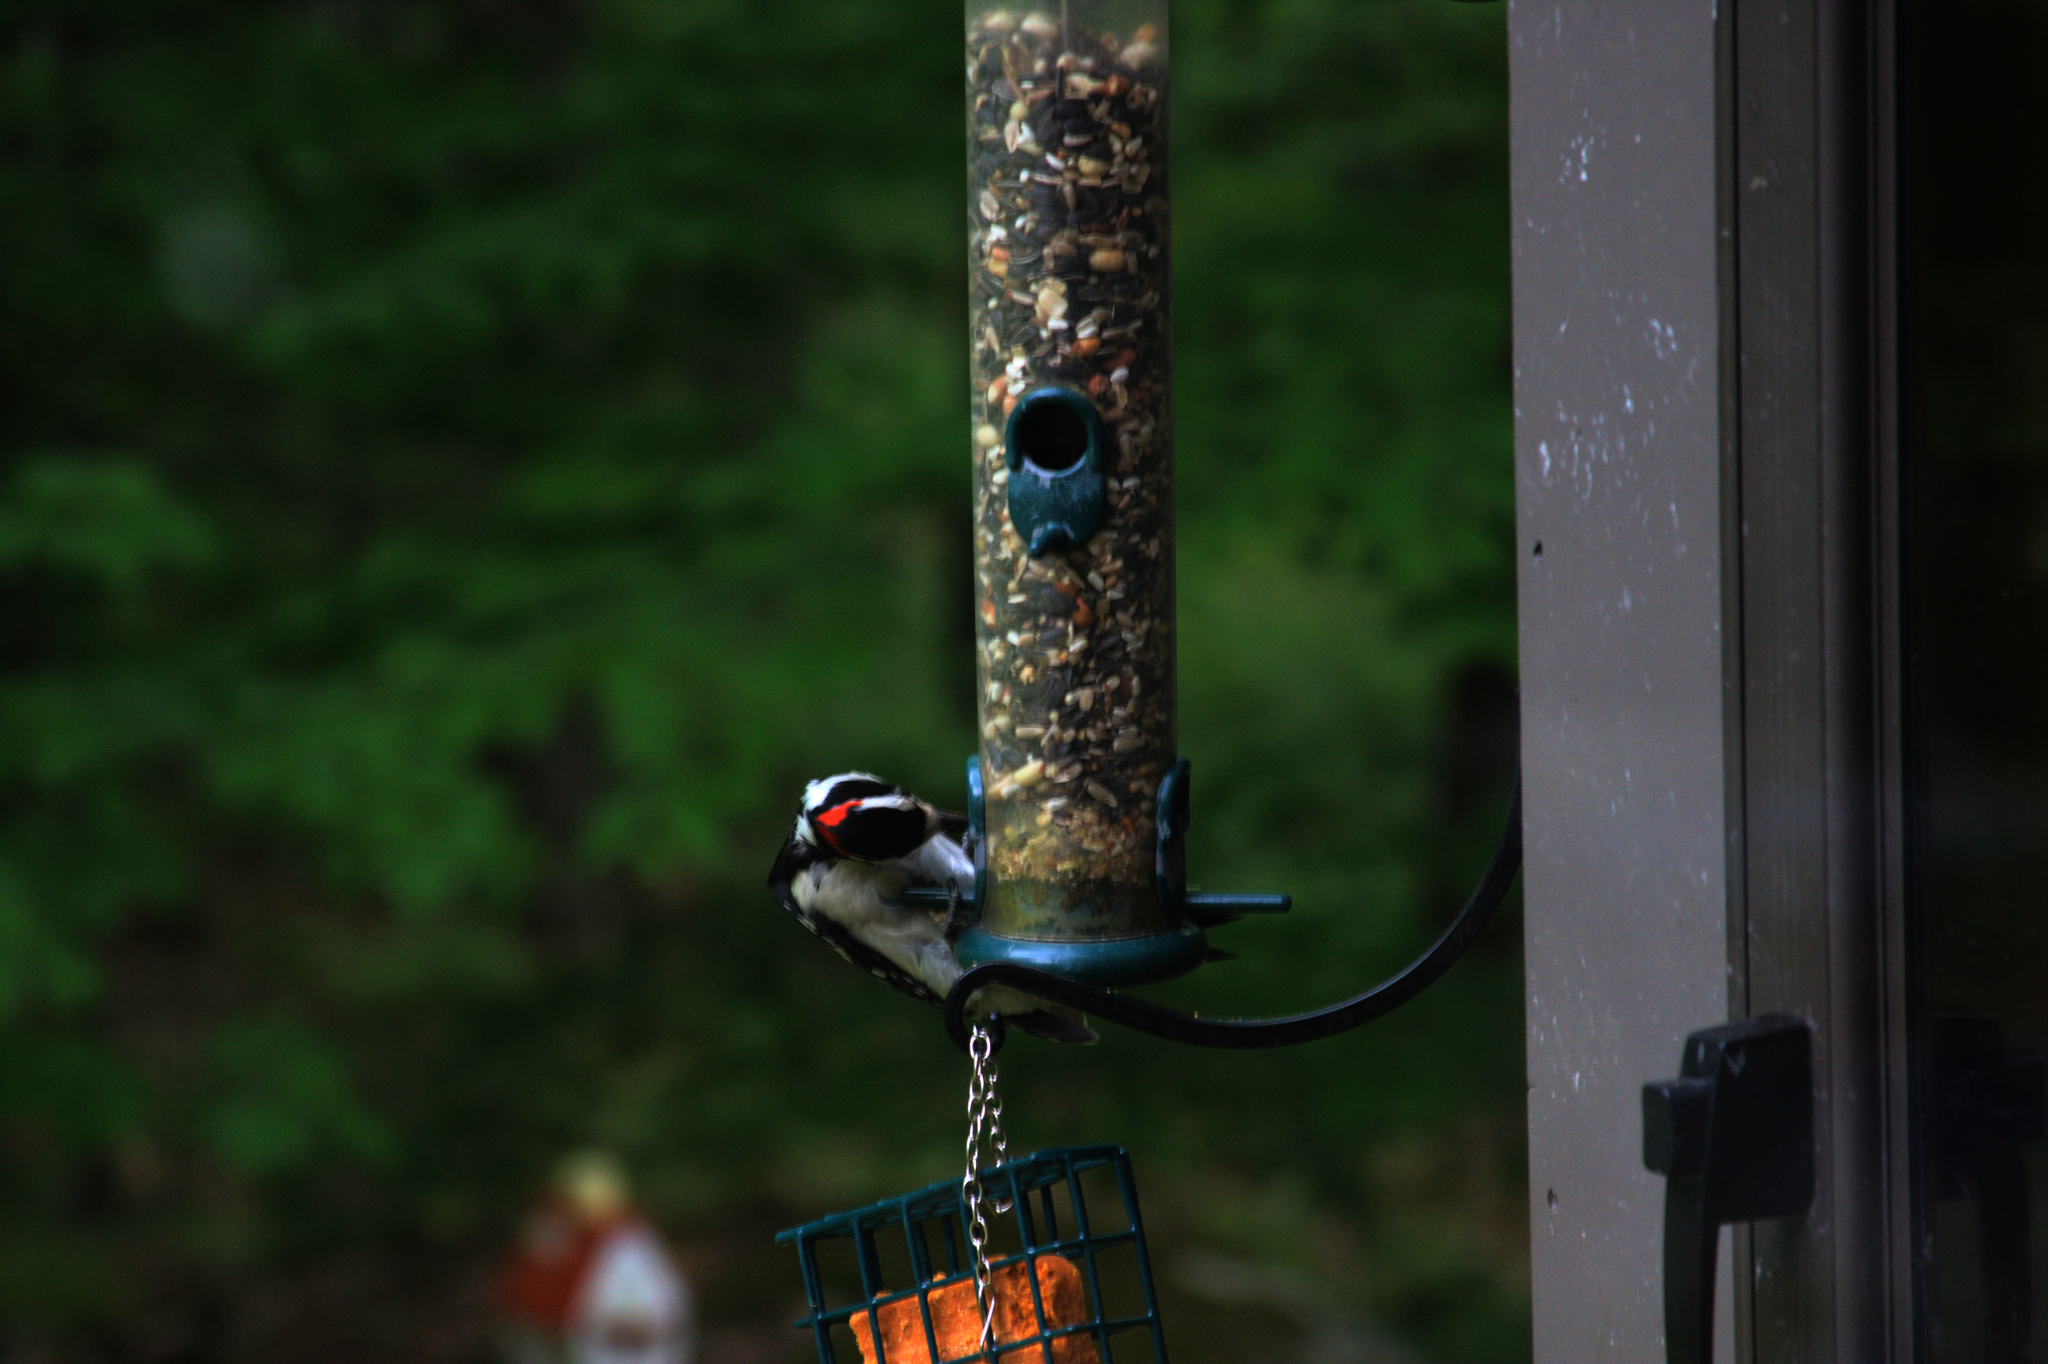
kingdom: Animalia
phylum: Chordata
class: Aves
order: Piciformes
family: Picidae
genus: Leuconotopicus
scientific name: Leuconotopicus villosus
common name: Hairy woodpecker
